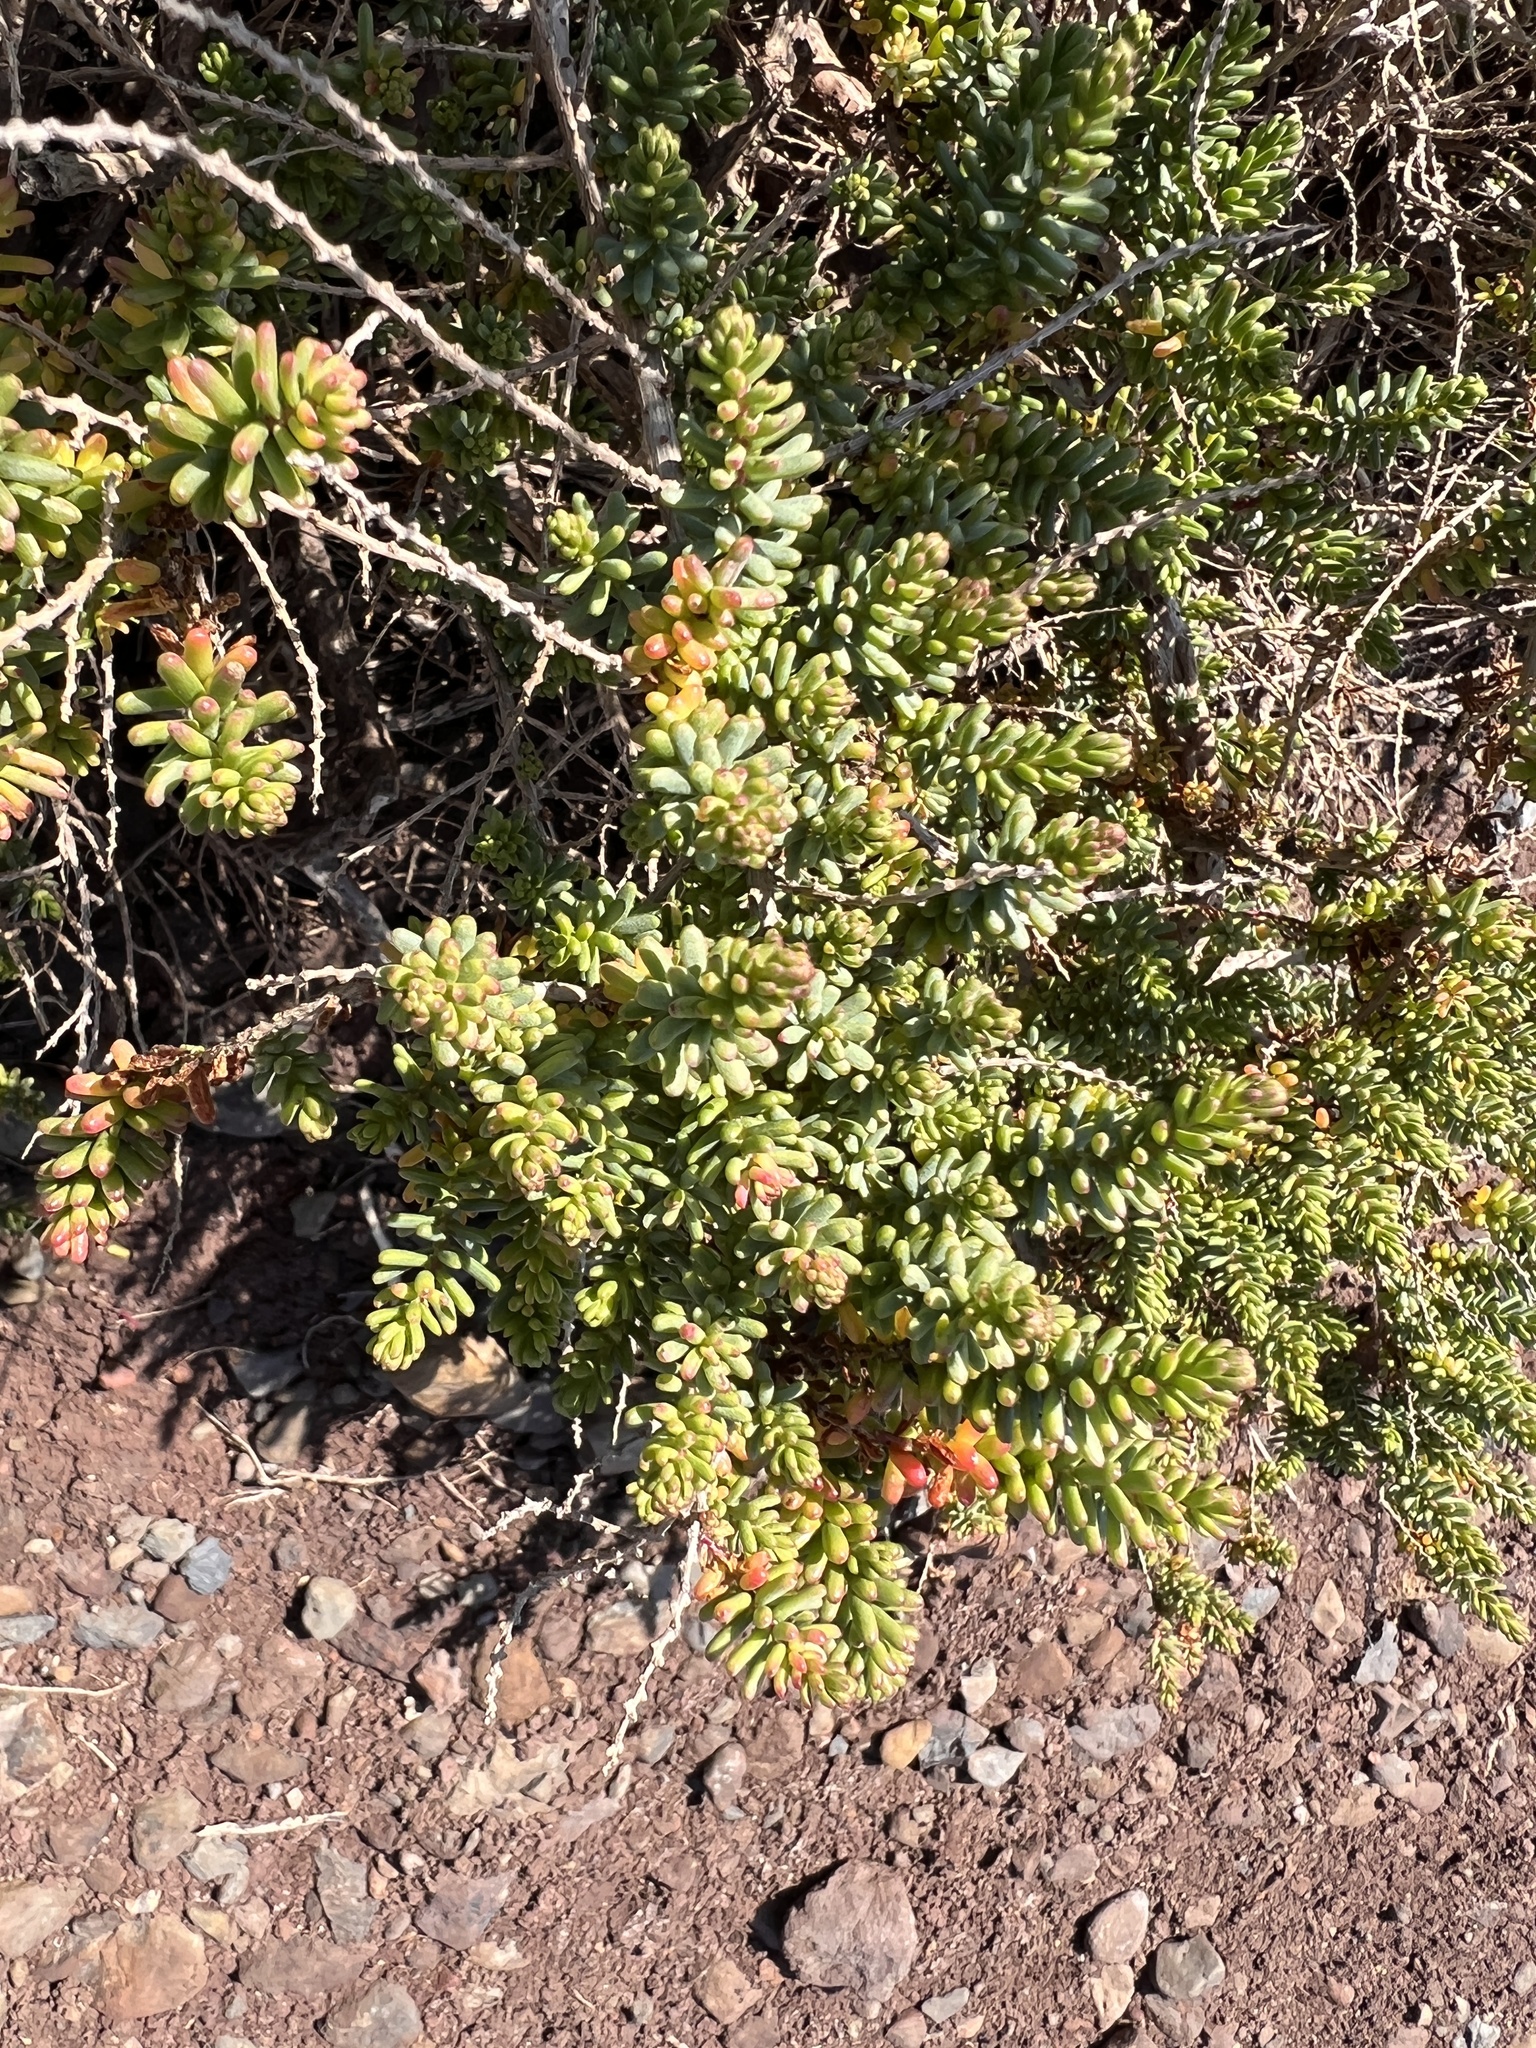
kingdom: Plantae
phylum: Tracheophyta
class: Magnoliopsida
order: Caryophyllales
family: Amaranthaceae
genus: Suaeda
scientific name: Suaeda vera
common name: Shrubby sea-blite
